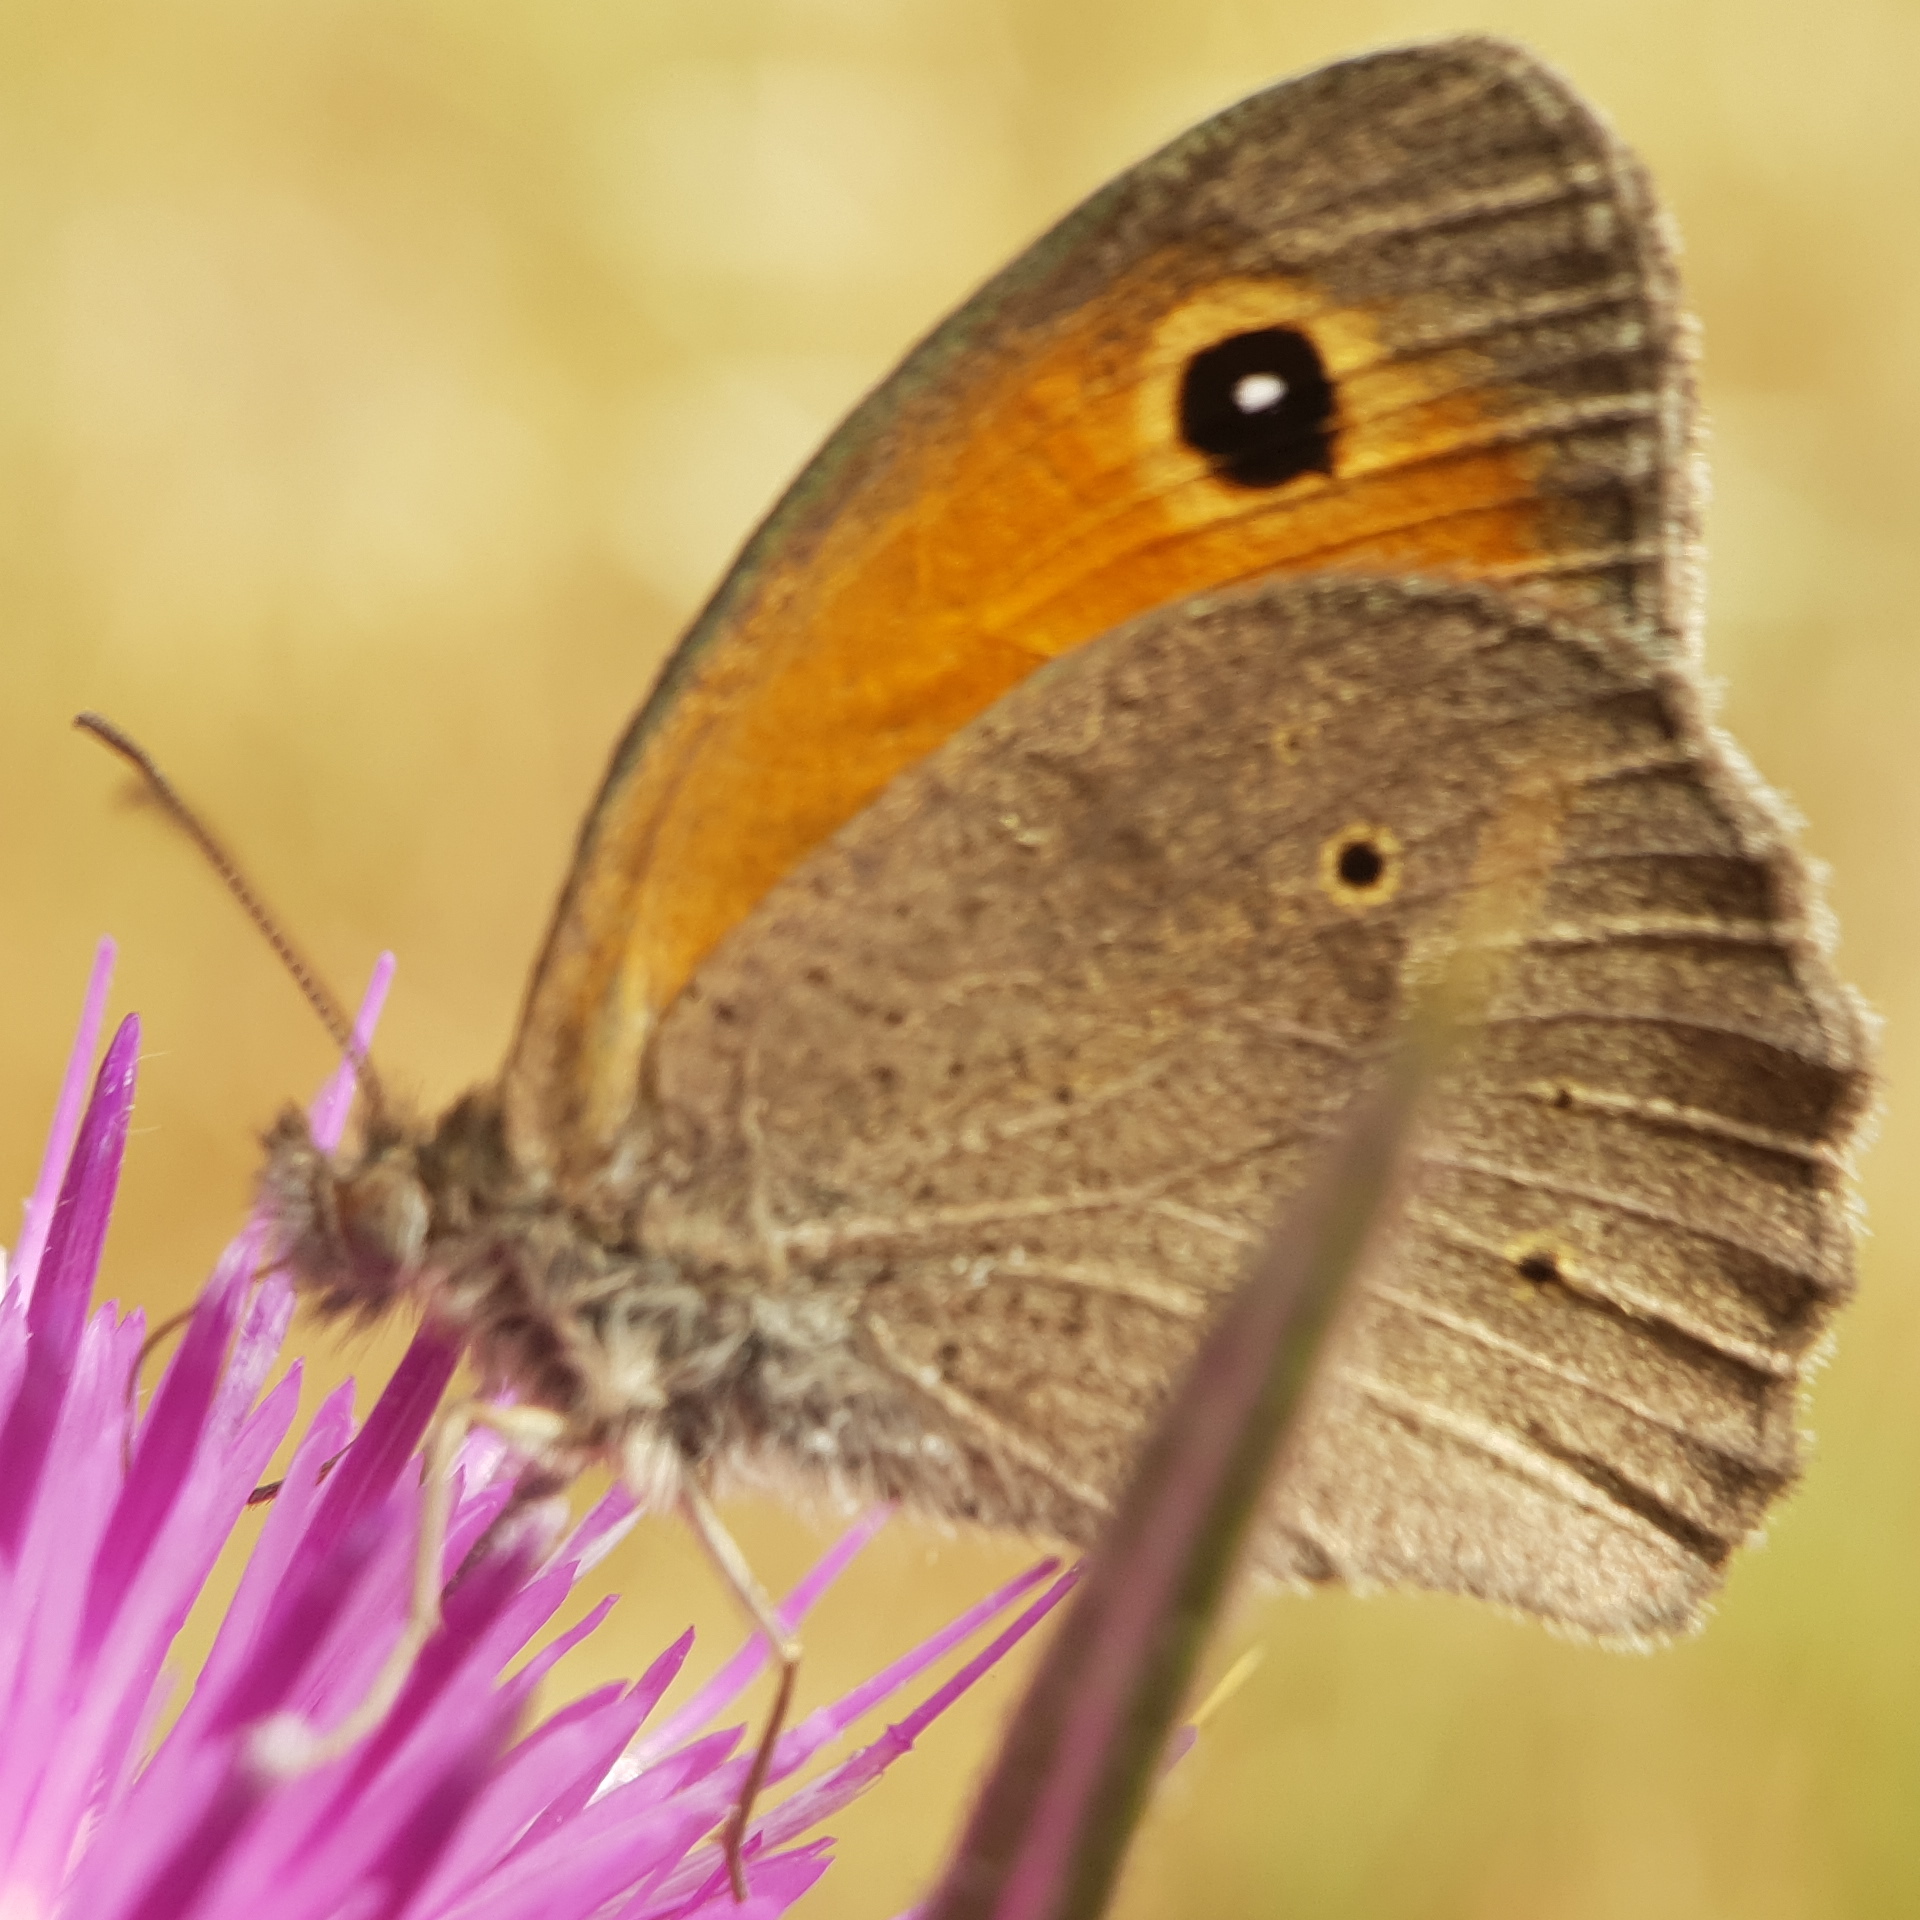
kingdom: Animalia
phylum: Arthropoda
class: Insecta
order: Lepidoptera
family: Nymphalidae
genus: Maniola
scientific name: Maniola telmessia
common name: Persian meadow brown
